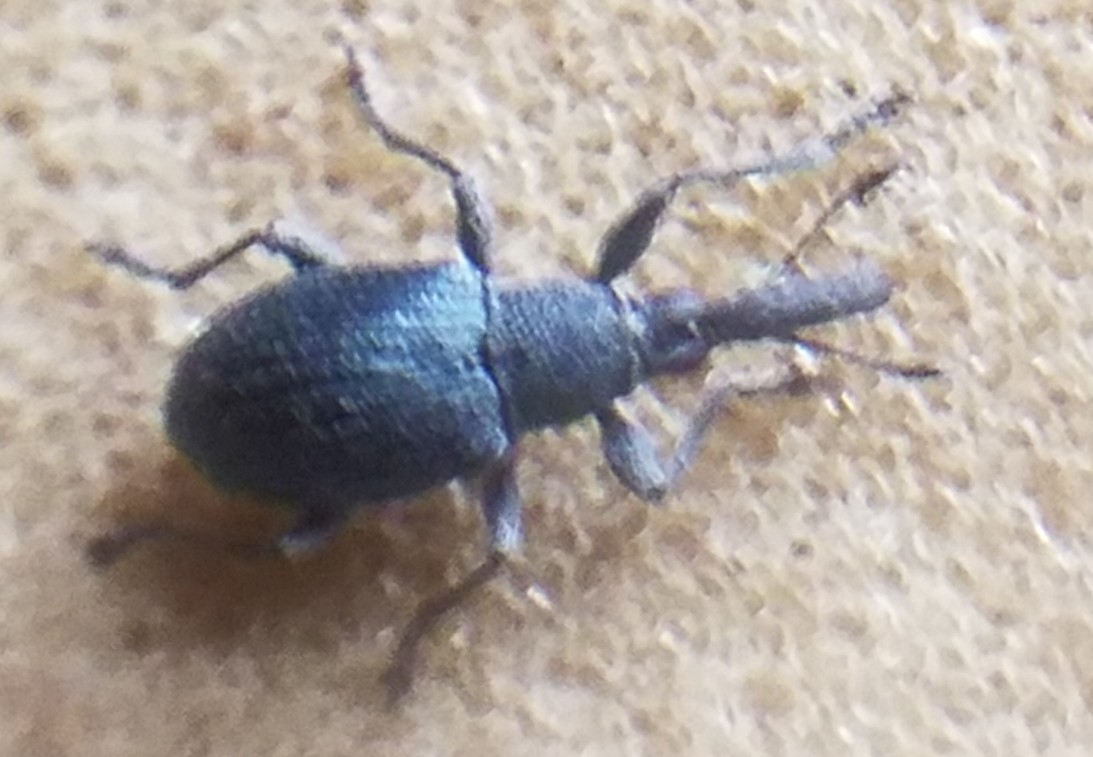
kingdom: Animalia
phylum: Arthropoda
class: Insecta
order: Coleoptera
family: Brentidae
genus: Alocentron
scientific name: Alocentron curvirostre
